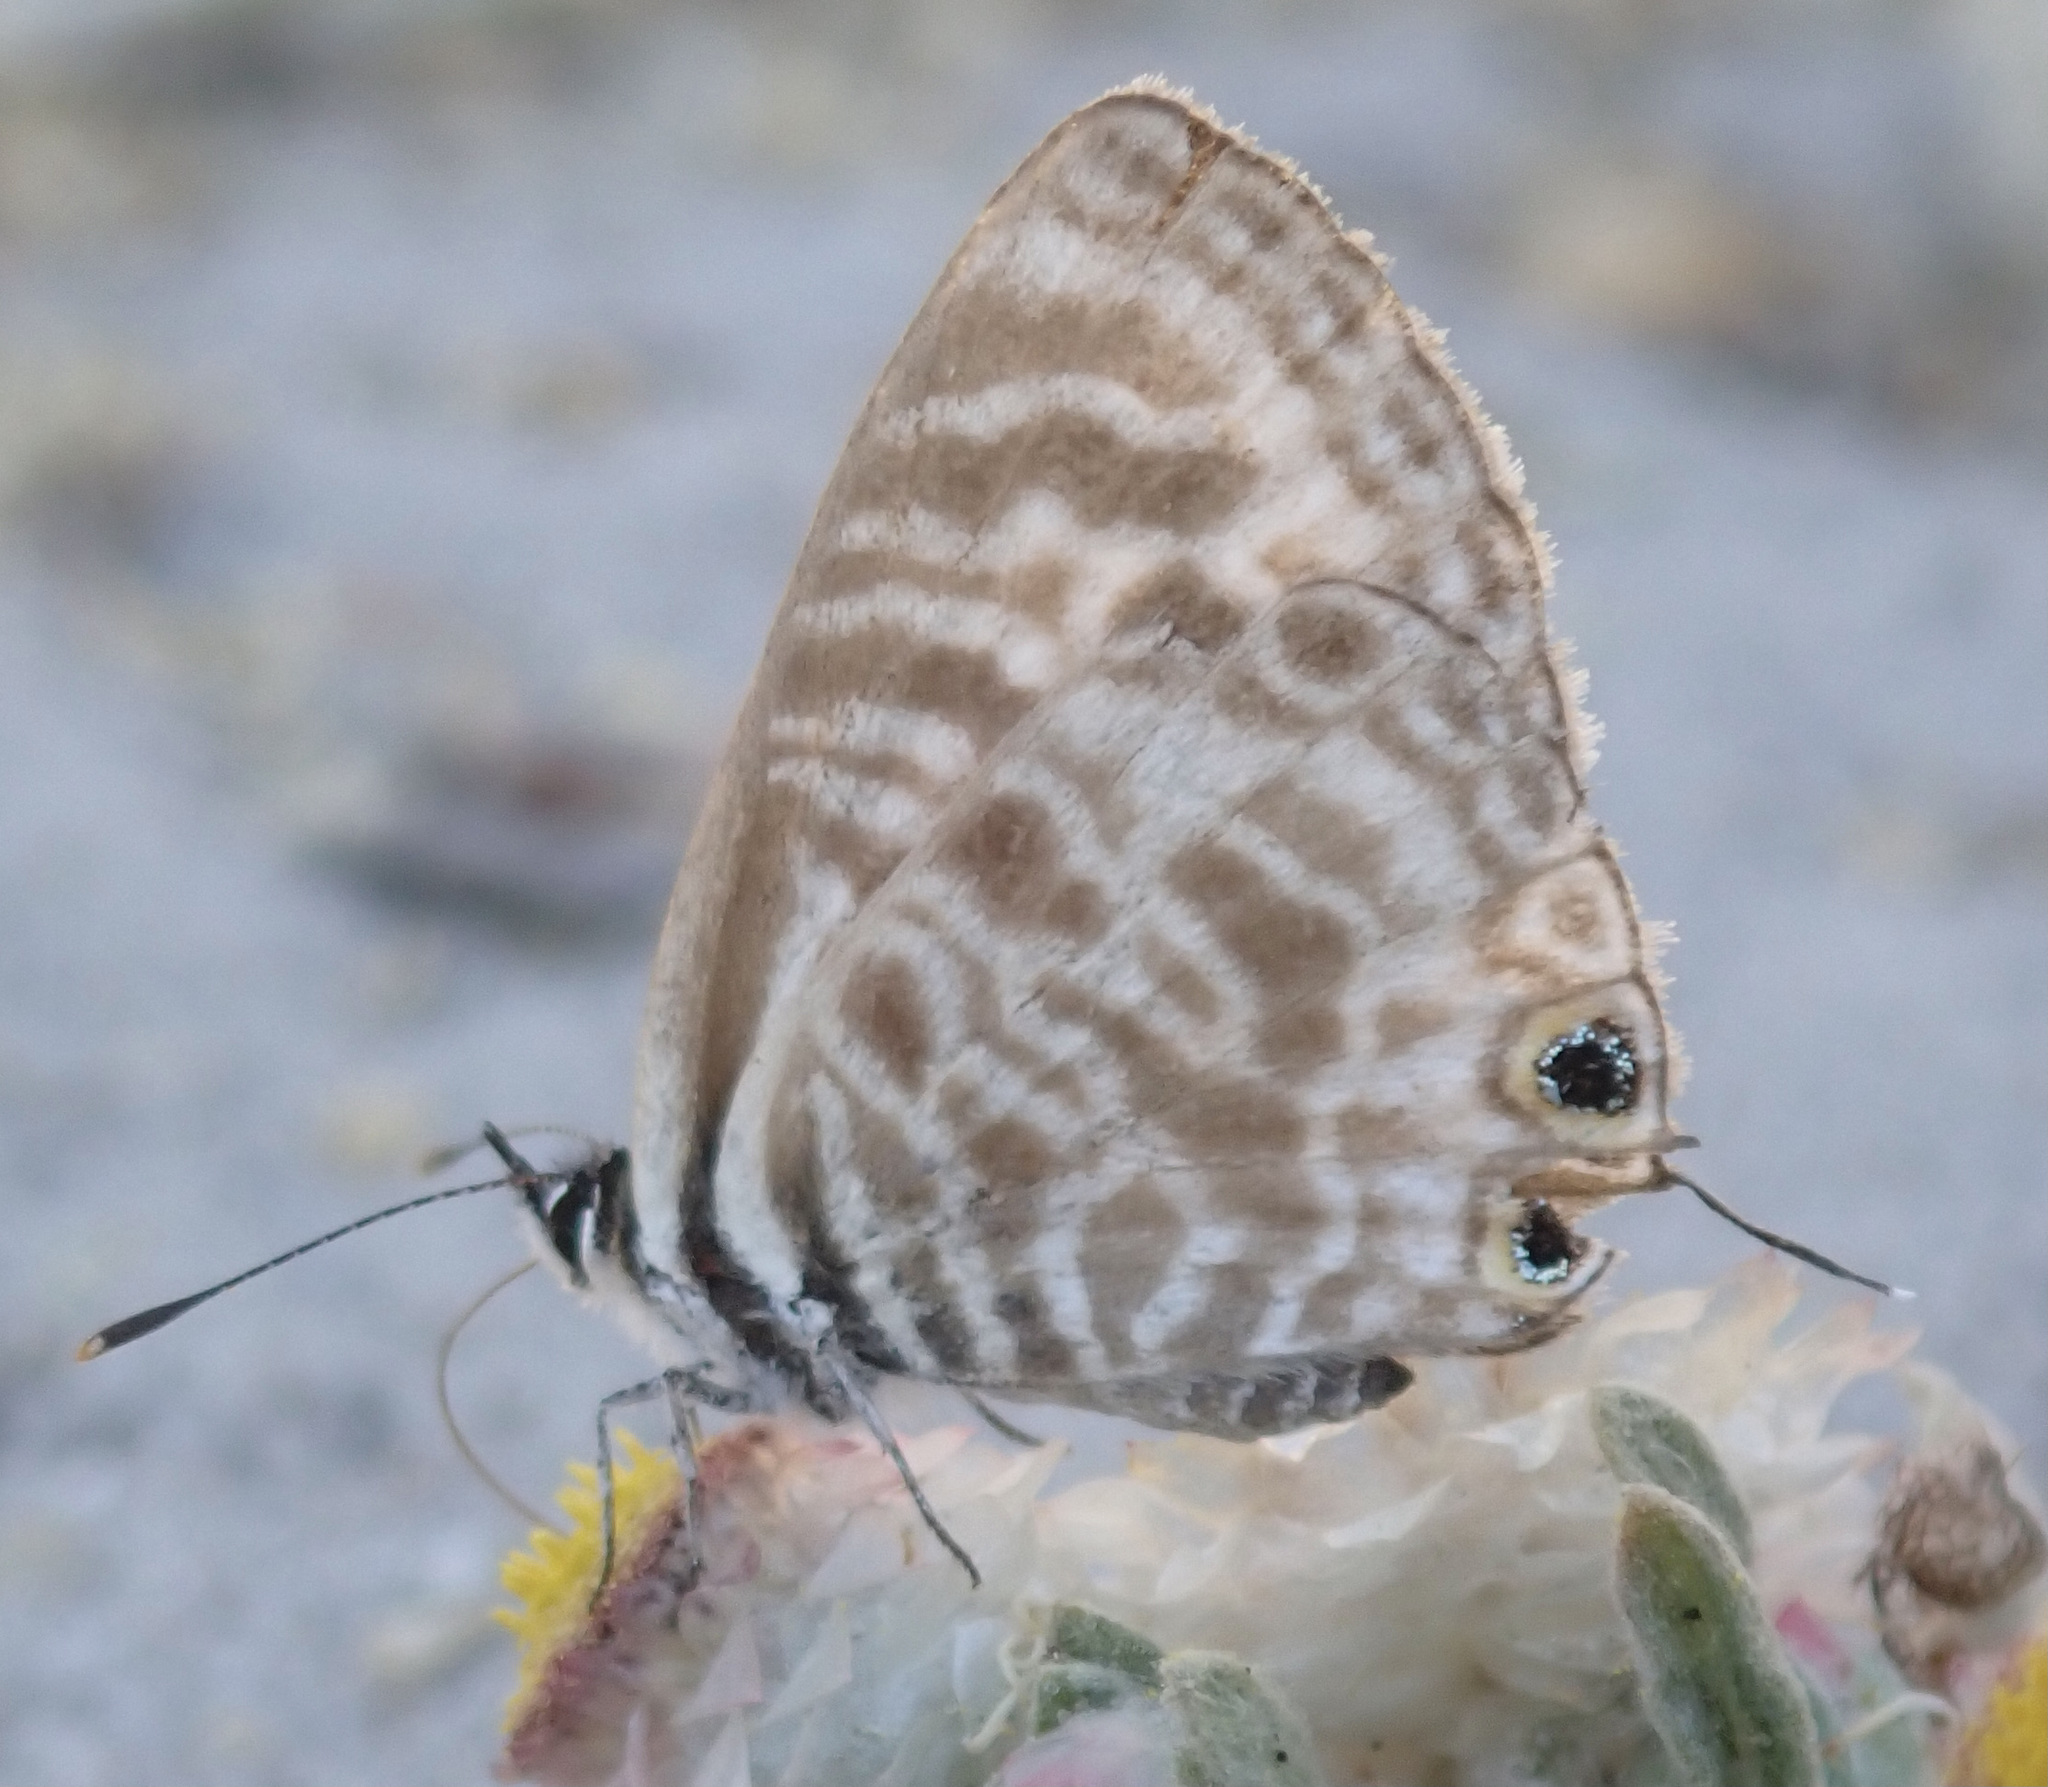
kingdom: Animalia
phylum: Arthropoda
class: Insecta
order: Lepidoptera
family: Lycaenidae
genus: Leptotes
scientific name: Leptotes
